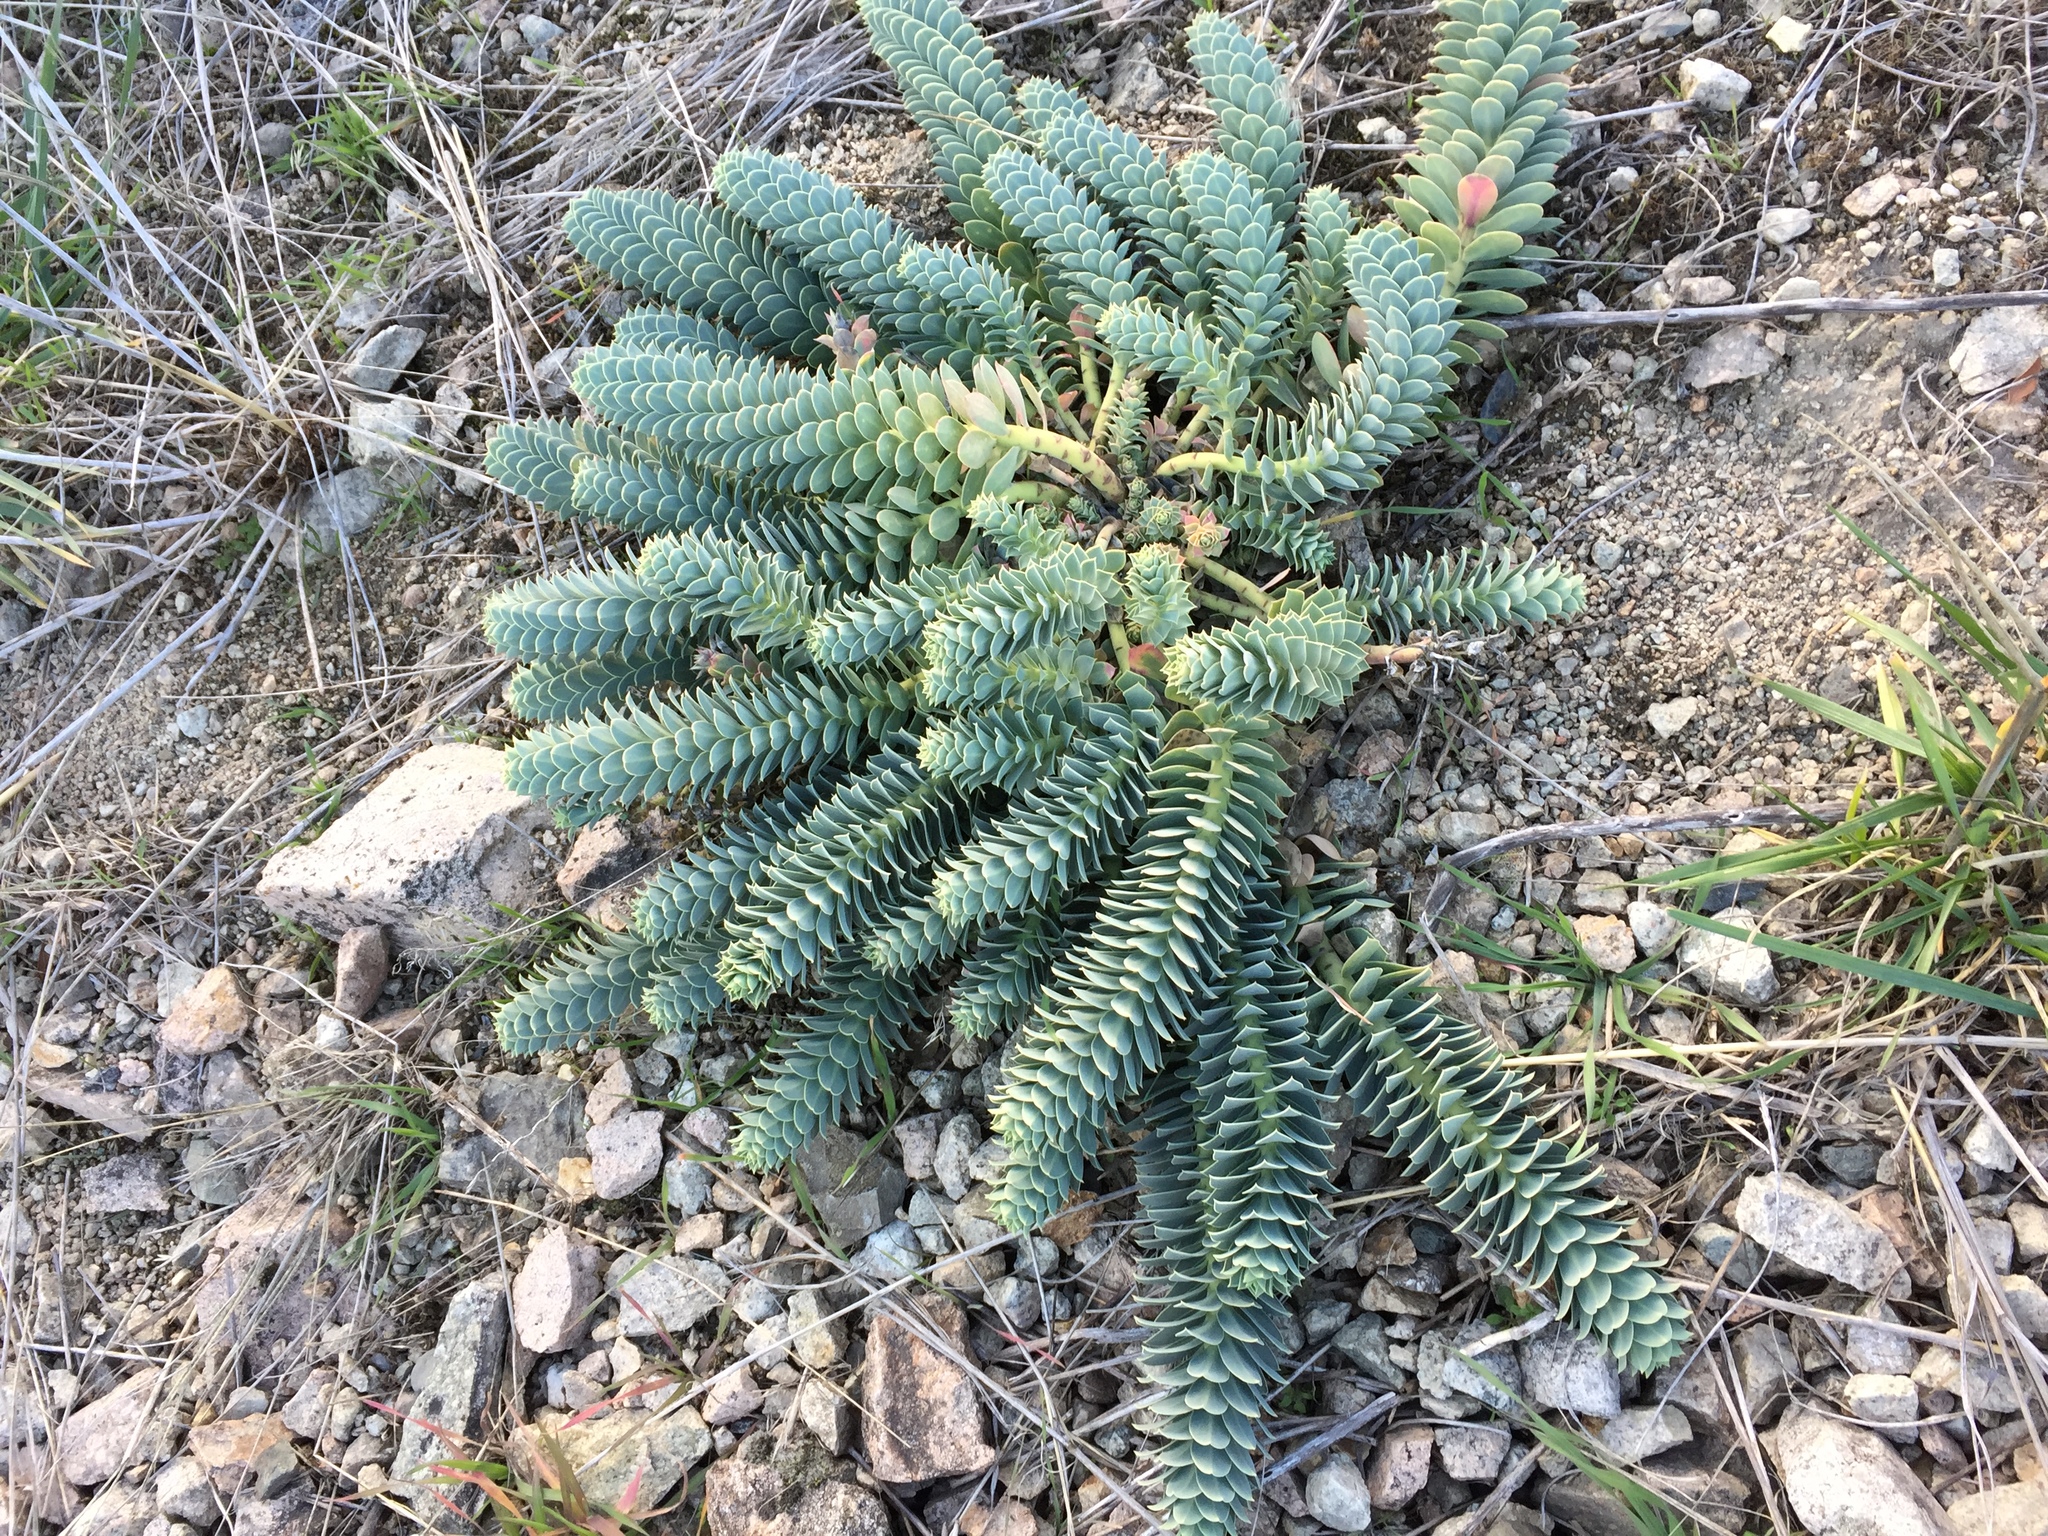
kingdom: Plantae
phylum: Tracheophyta
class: Magnoliopsida
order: Malpighiales
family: Euphorbiaceae
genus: Euphorbia
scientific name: Euphorbia myrsinites
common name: Myrtle spurge
